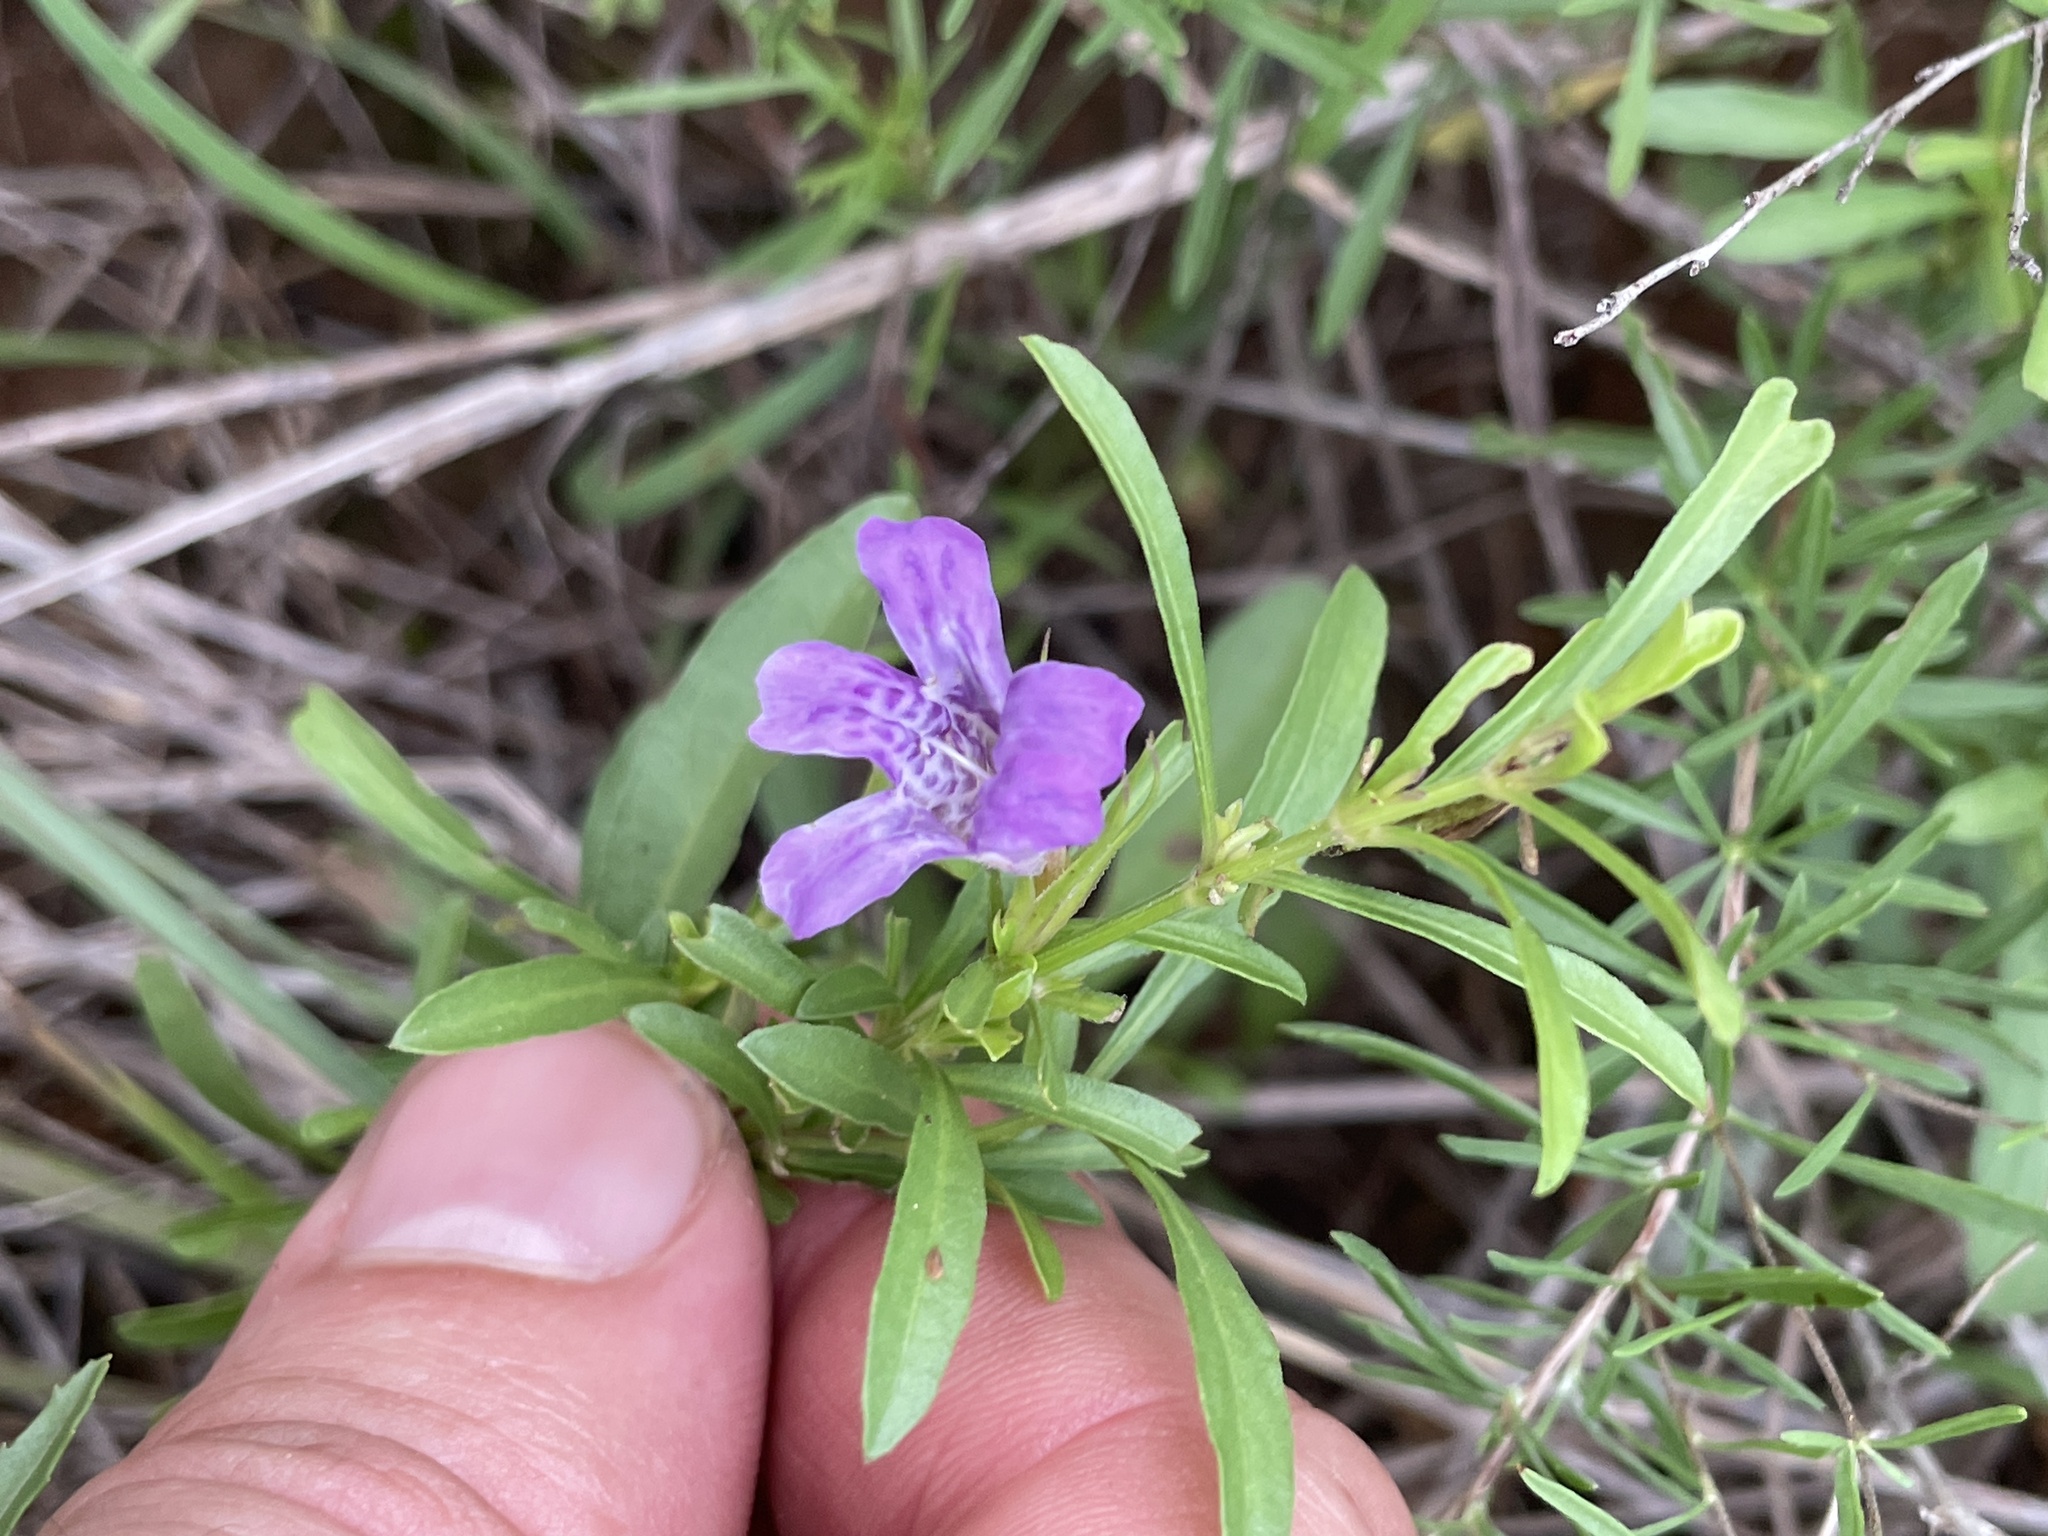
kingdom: Plantae
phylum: Tracheophyta
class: Magnoliopsida
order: Lamiales
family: Acanthaceae
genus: Dyschoriste
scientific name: Dyschoriste linearis
